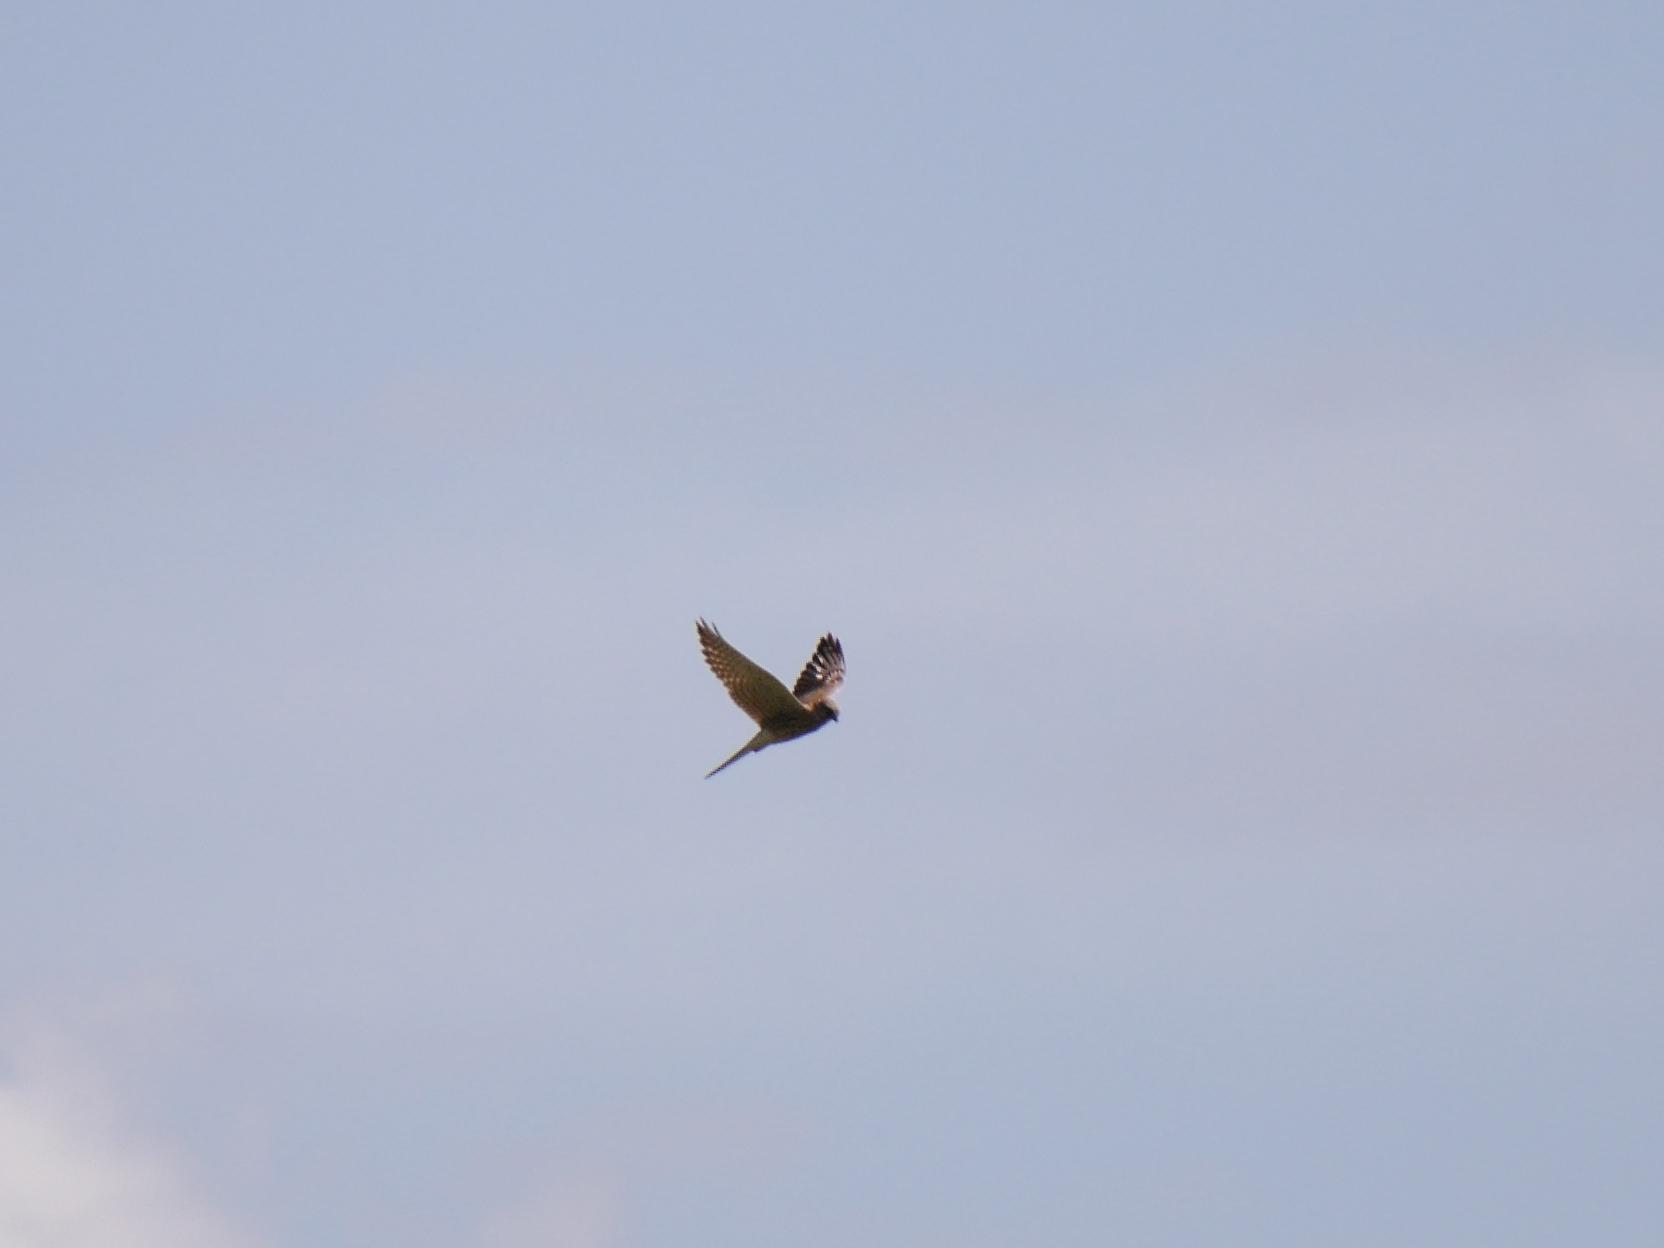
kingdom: Animalia
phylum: Chordata
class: Aves
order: Falconiformes
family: Falconidae
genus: Falco
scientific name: Falco tinnunculus
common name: Common kestrel
